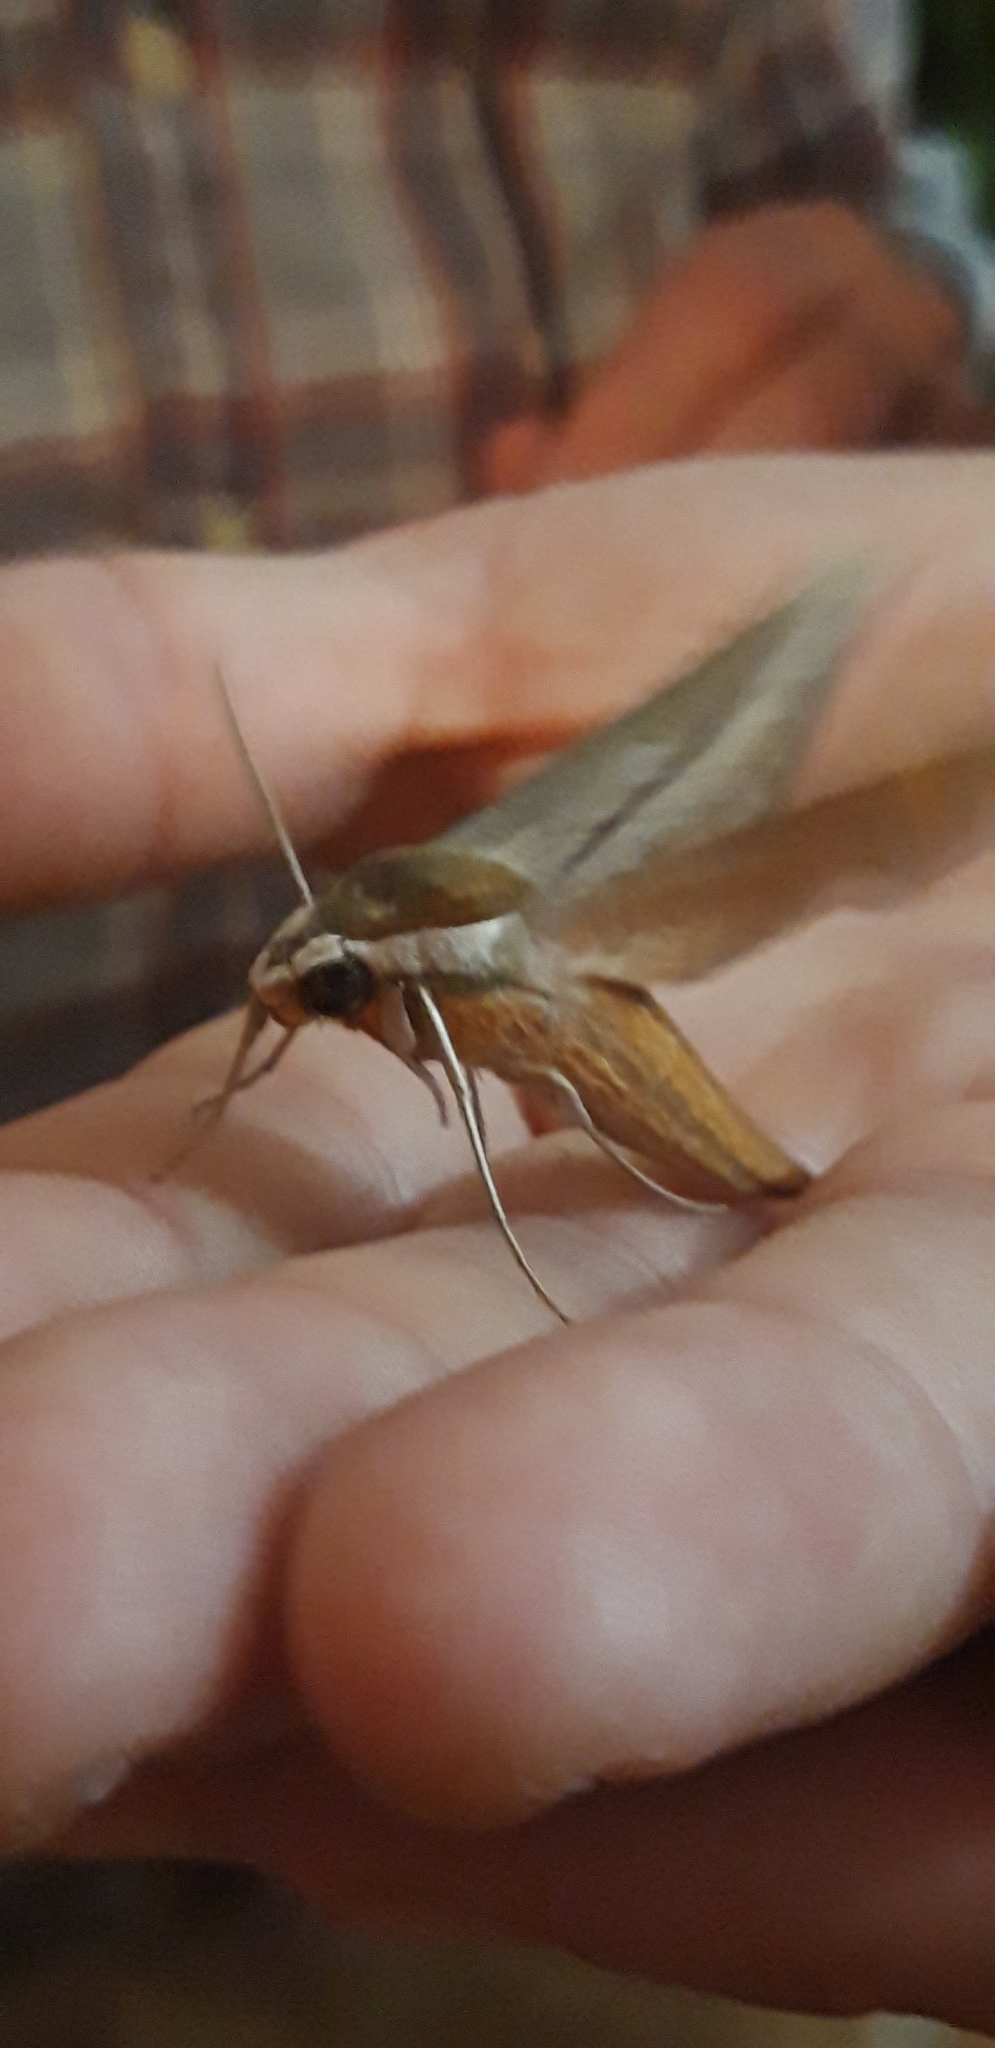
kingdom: Animalia
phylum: Arthropoda
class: Insecta
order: Lepidoptera
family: Sphingidae
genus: Xylophanes
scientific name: Xylophanes tersa
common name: Tersa sphinx
